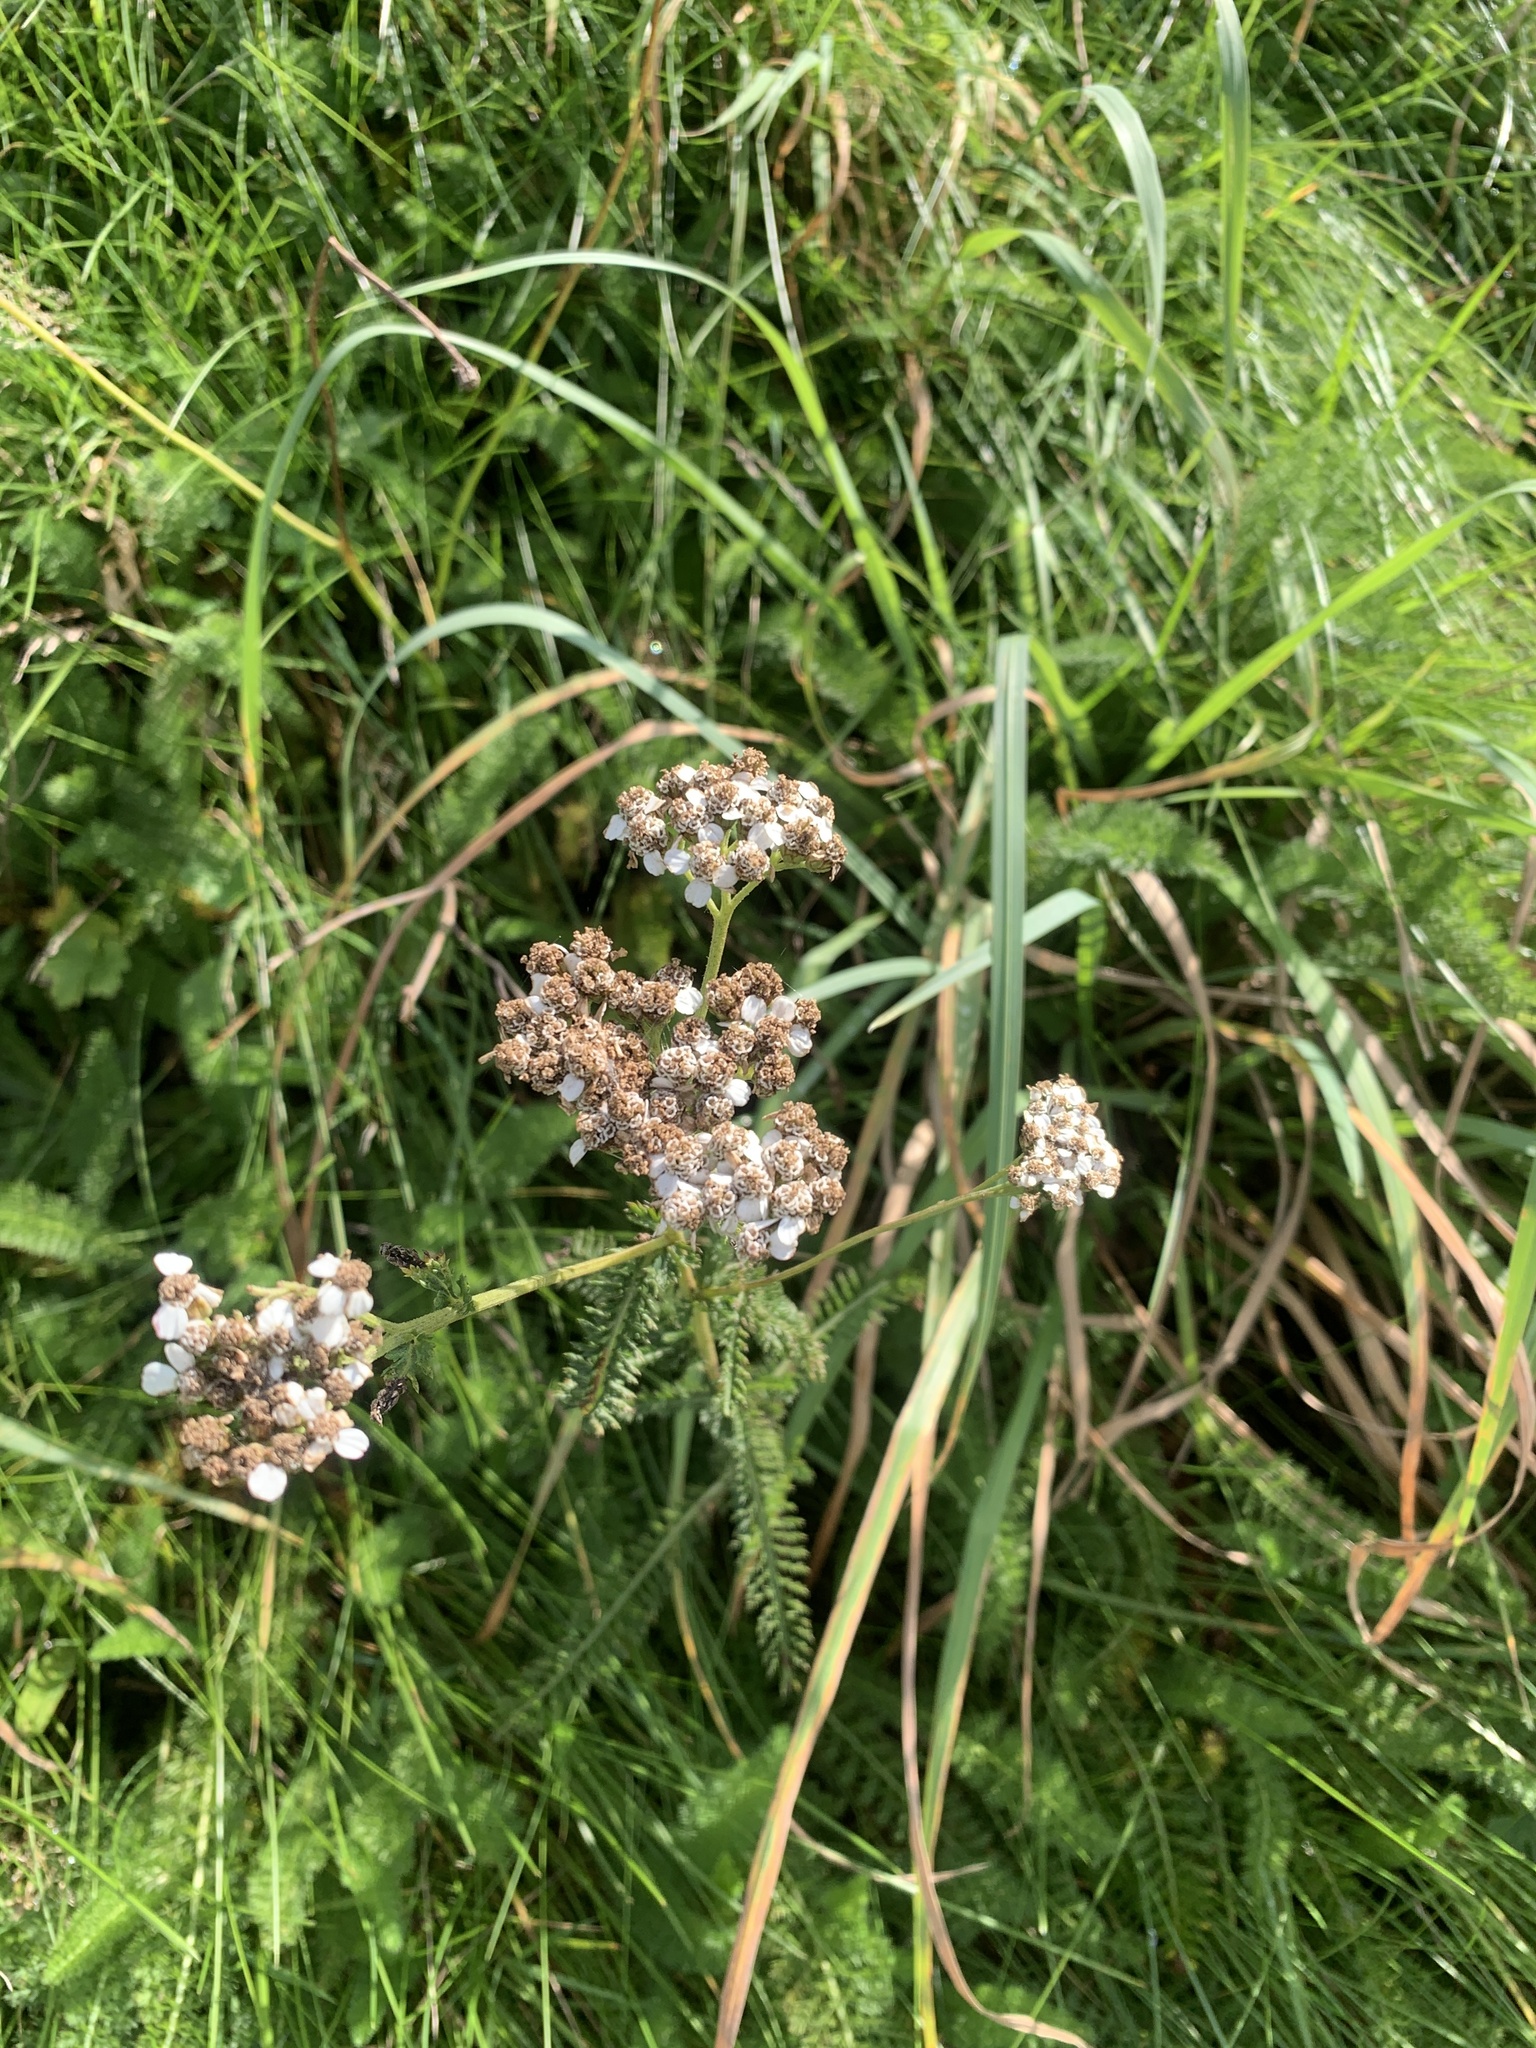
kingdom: Plantae
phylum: Tracheophyta
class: Magnoliopsida
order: Asterales
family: Asteraceae
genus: Achillea
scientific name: Achillea millefolium
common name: Yarrow
